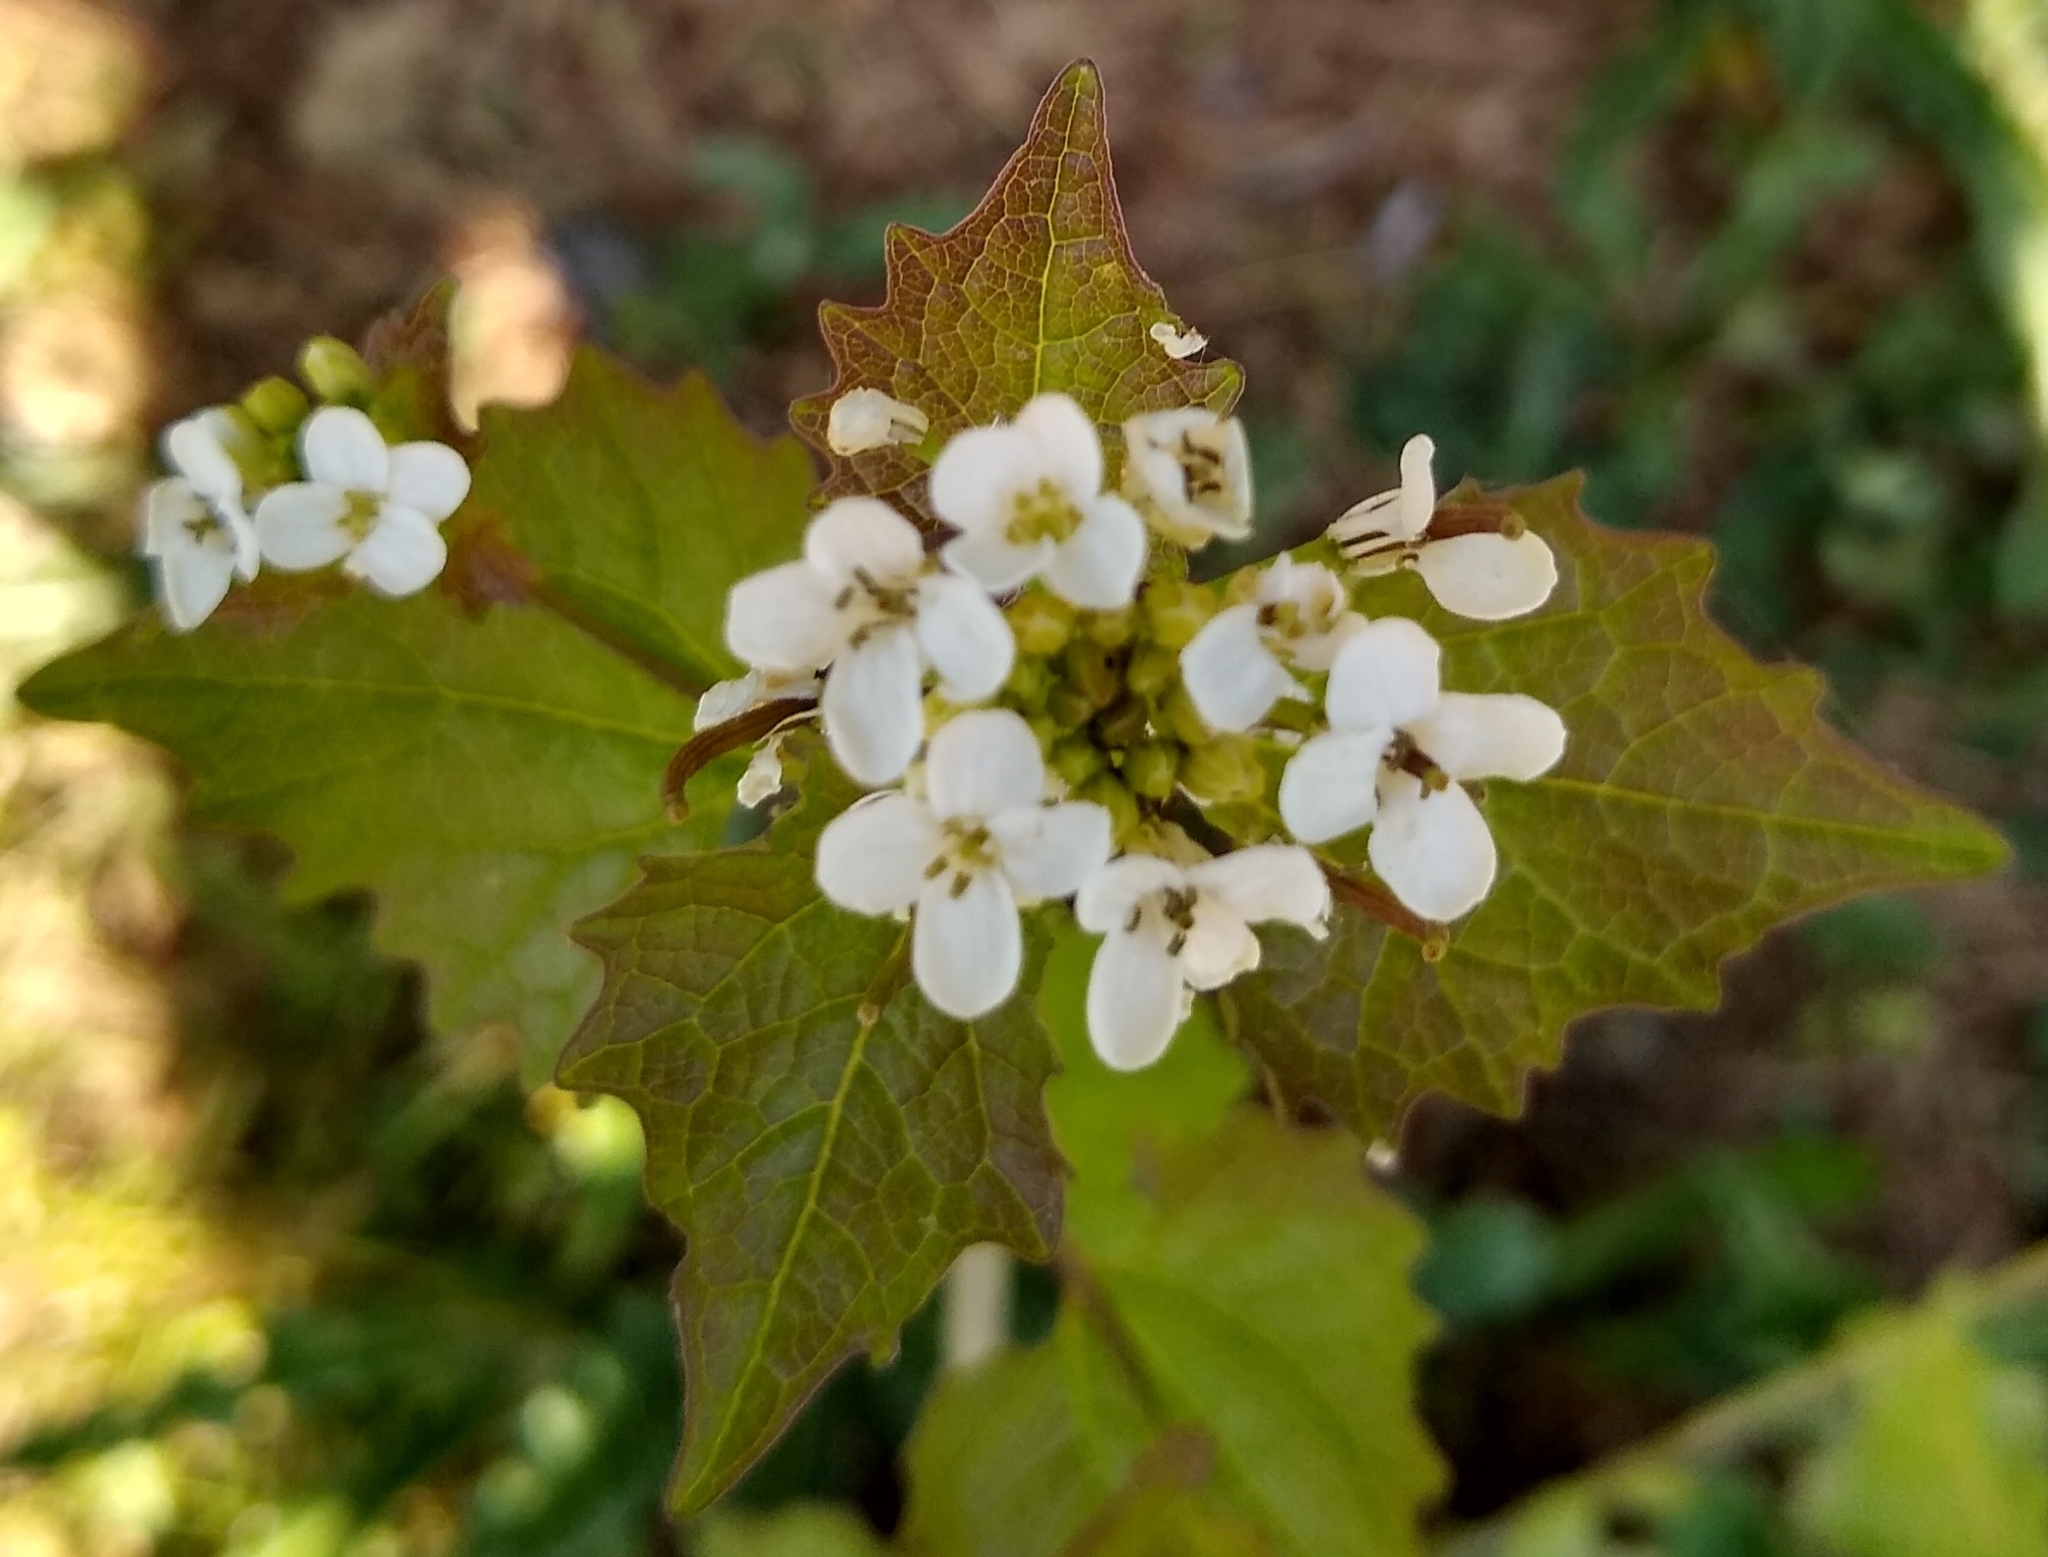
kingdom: Plantae
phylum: Tracheophyta
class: Magnoliopsida
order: Brassicales
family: Brassicaceae
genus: Alliaria
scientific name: Alliaria petiolata
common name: Garlic mustard
